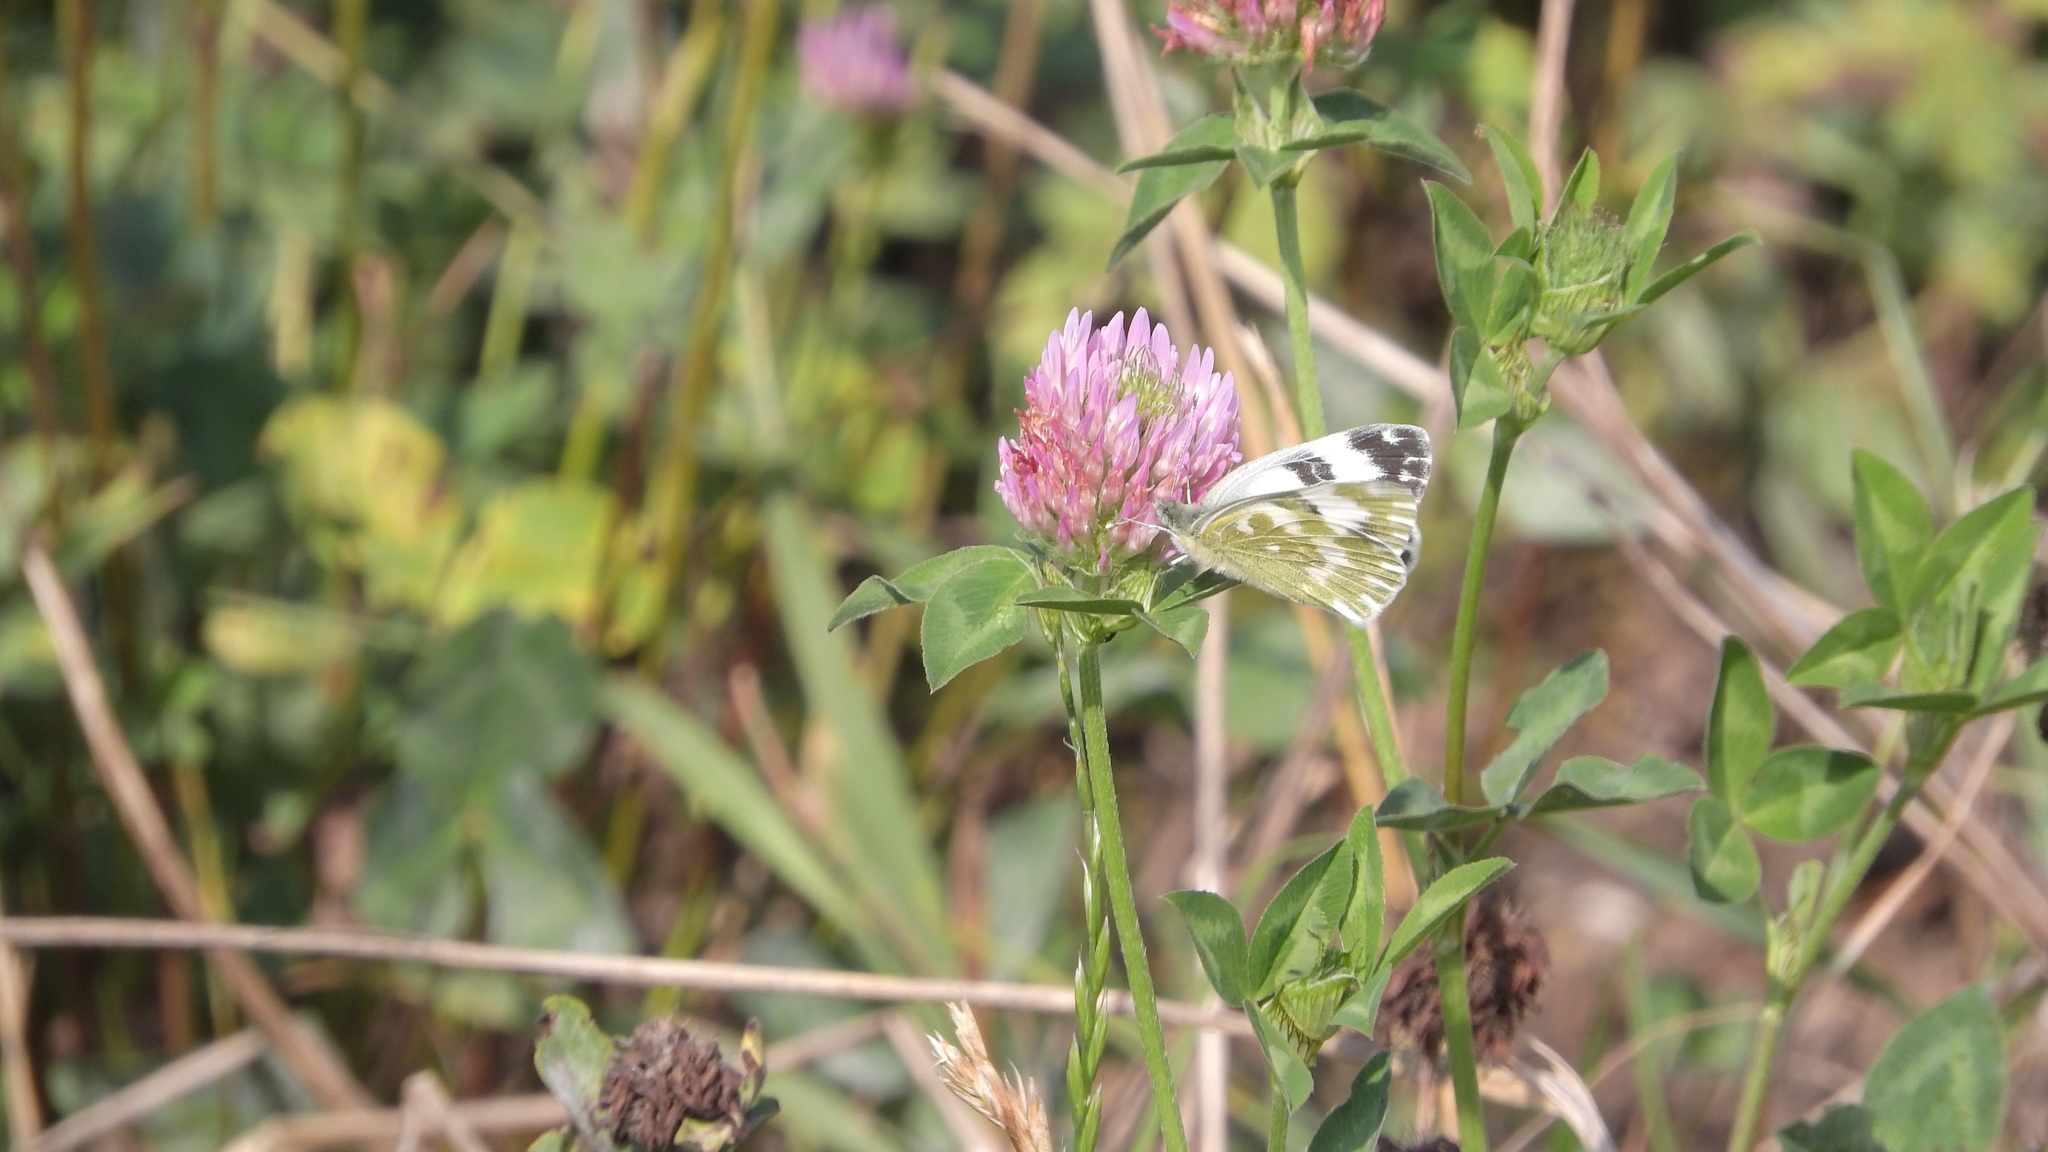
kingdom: Animalia
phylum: Arthropoda
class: Insecta
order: Lepidoptera
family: Pieridae
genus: Pontia
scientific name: Pontia edusa
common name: Eastern bath white
